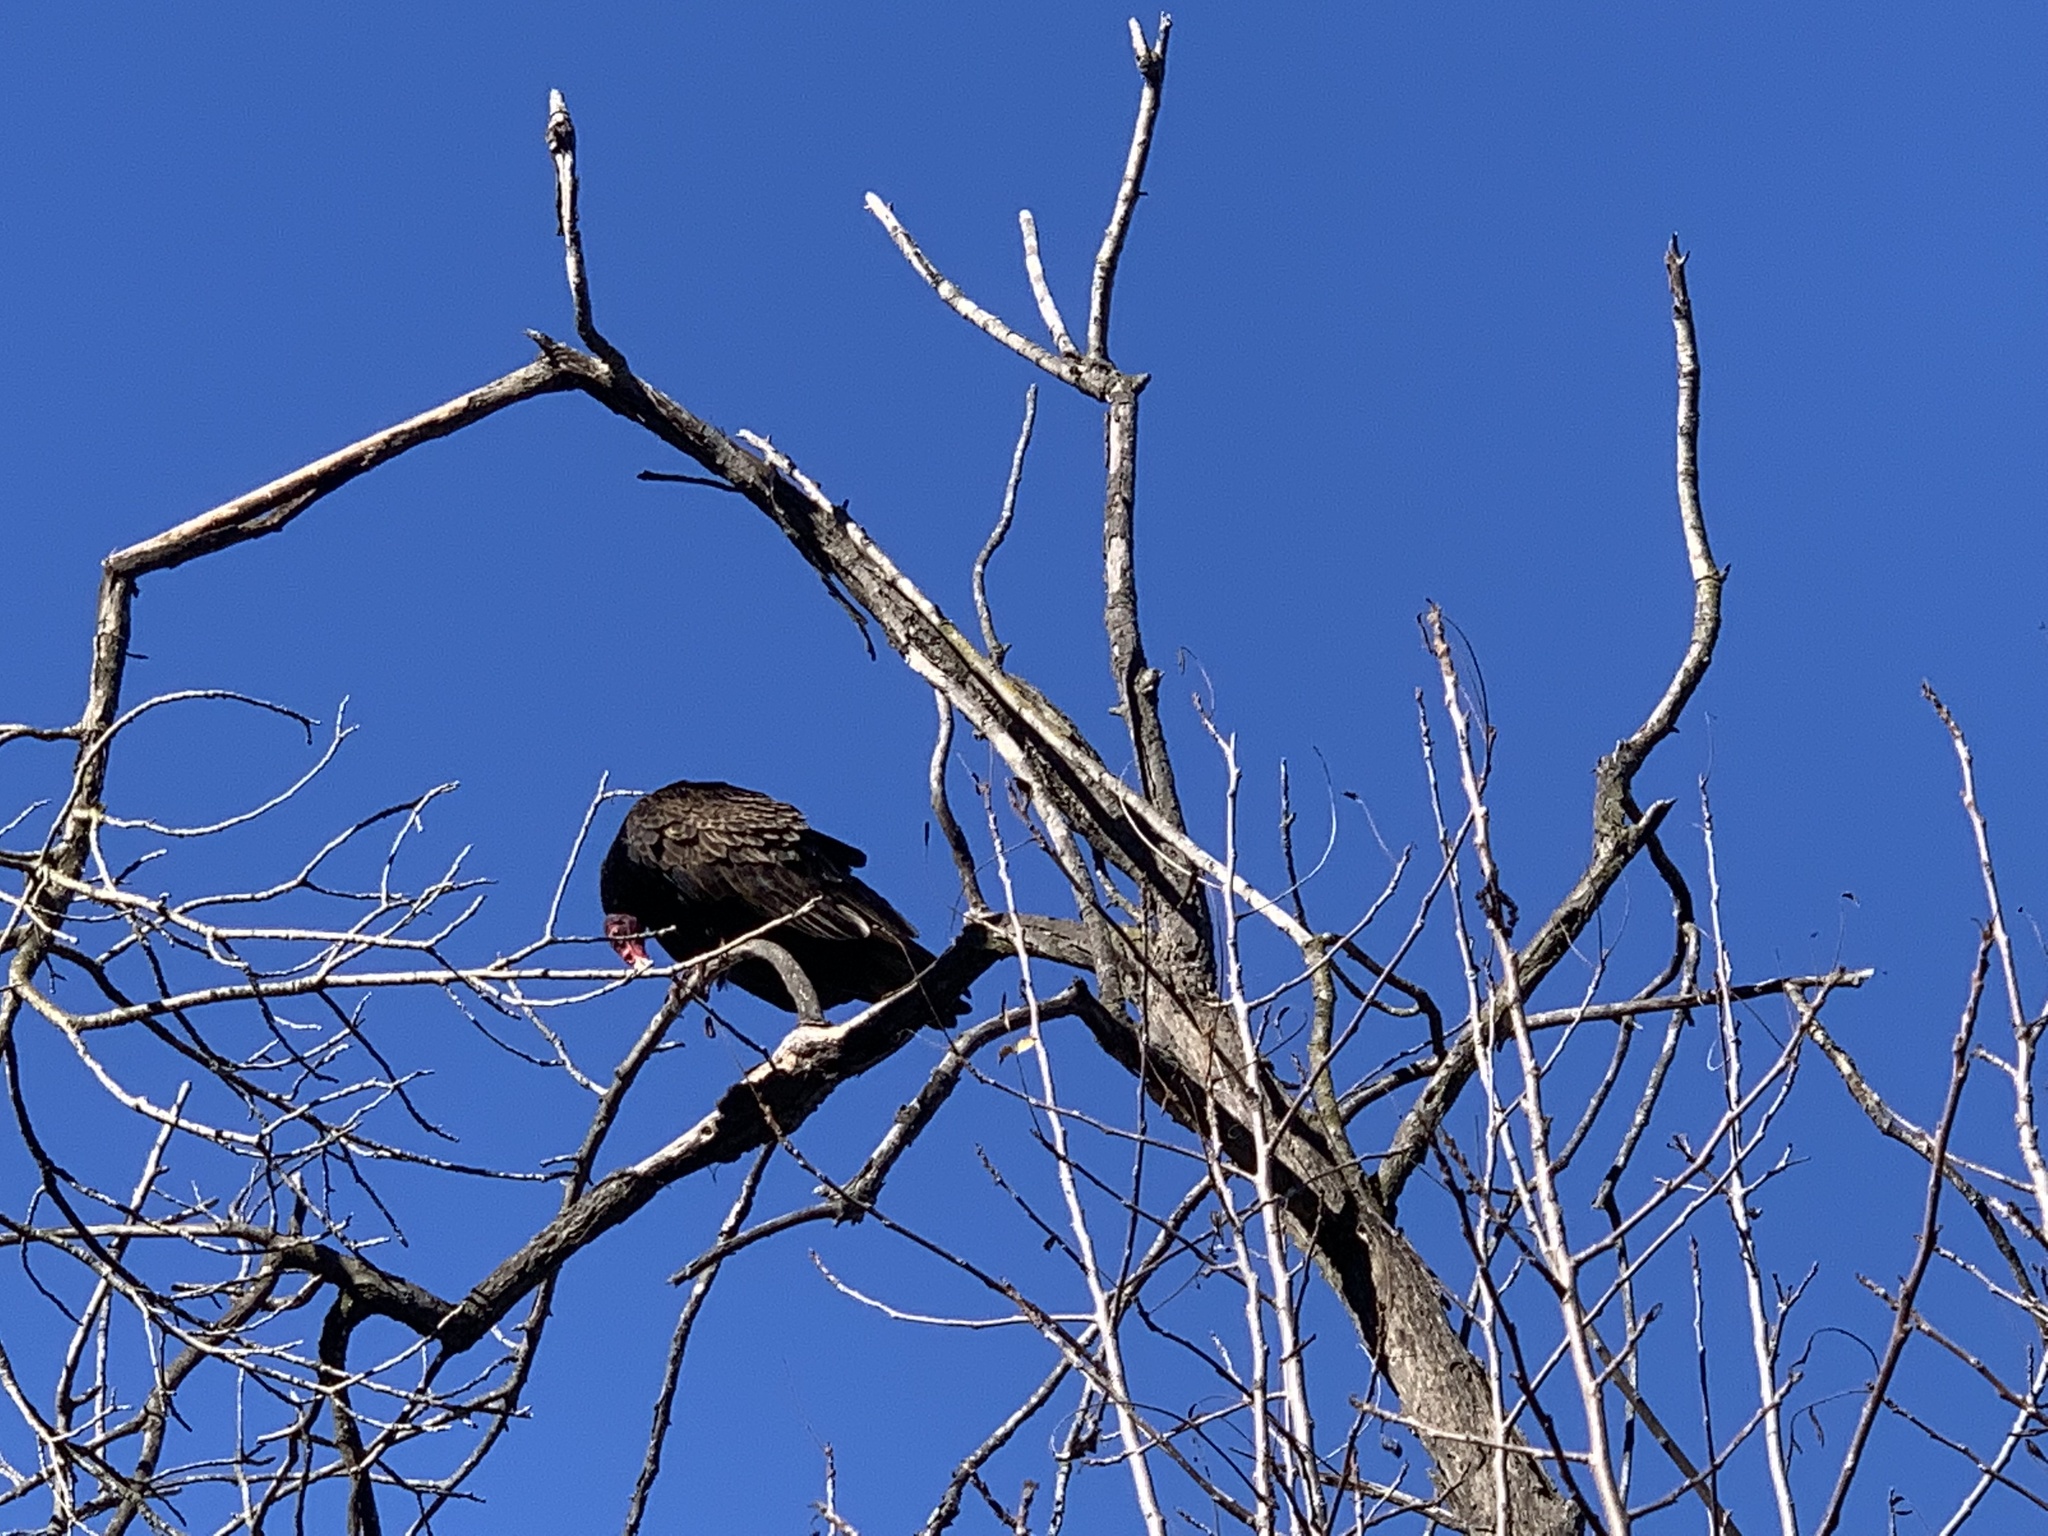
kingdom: Animalia
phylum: Chordata
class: Aves
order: Accipitriformes
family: Cathartidae
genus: Cathartes
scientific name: Cathartes aura
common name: Turkey vulture
